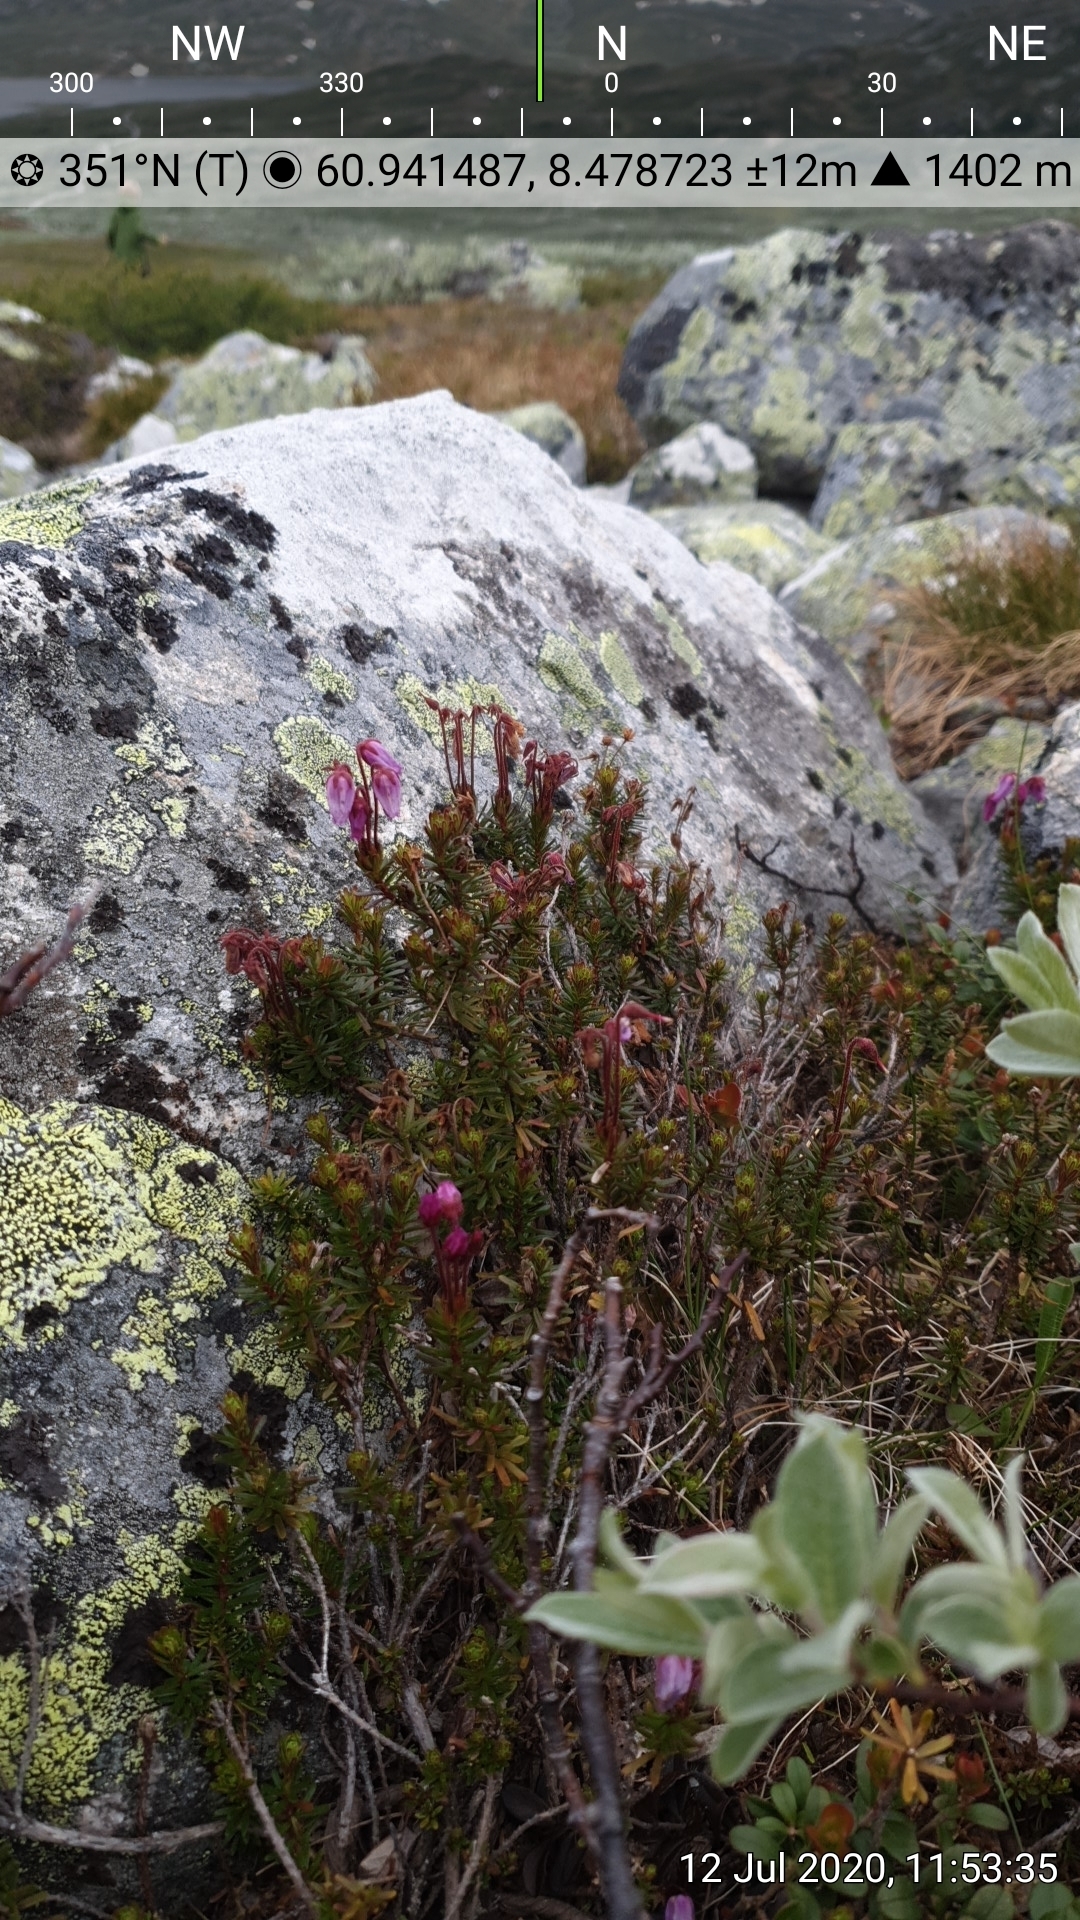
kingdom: Plantae
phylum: Tracheophyta
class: Magnoliopsida
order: Ericales
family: Ericaceae
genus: Phyllodoce
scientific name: Phyllodoce caerulea
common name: Blue heath
